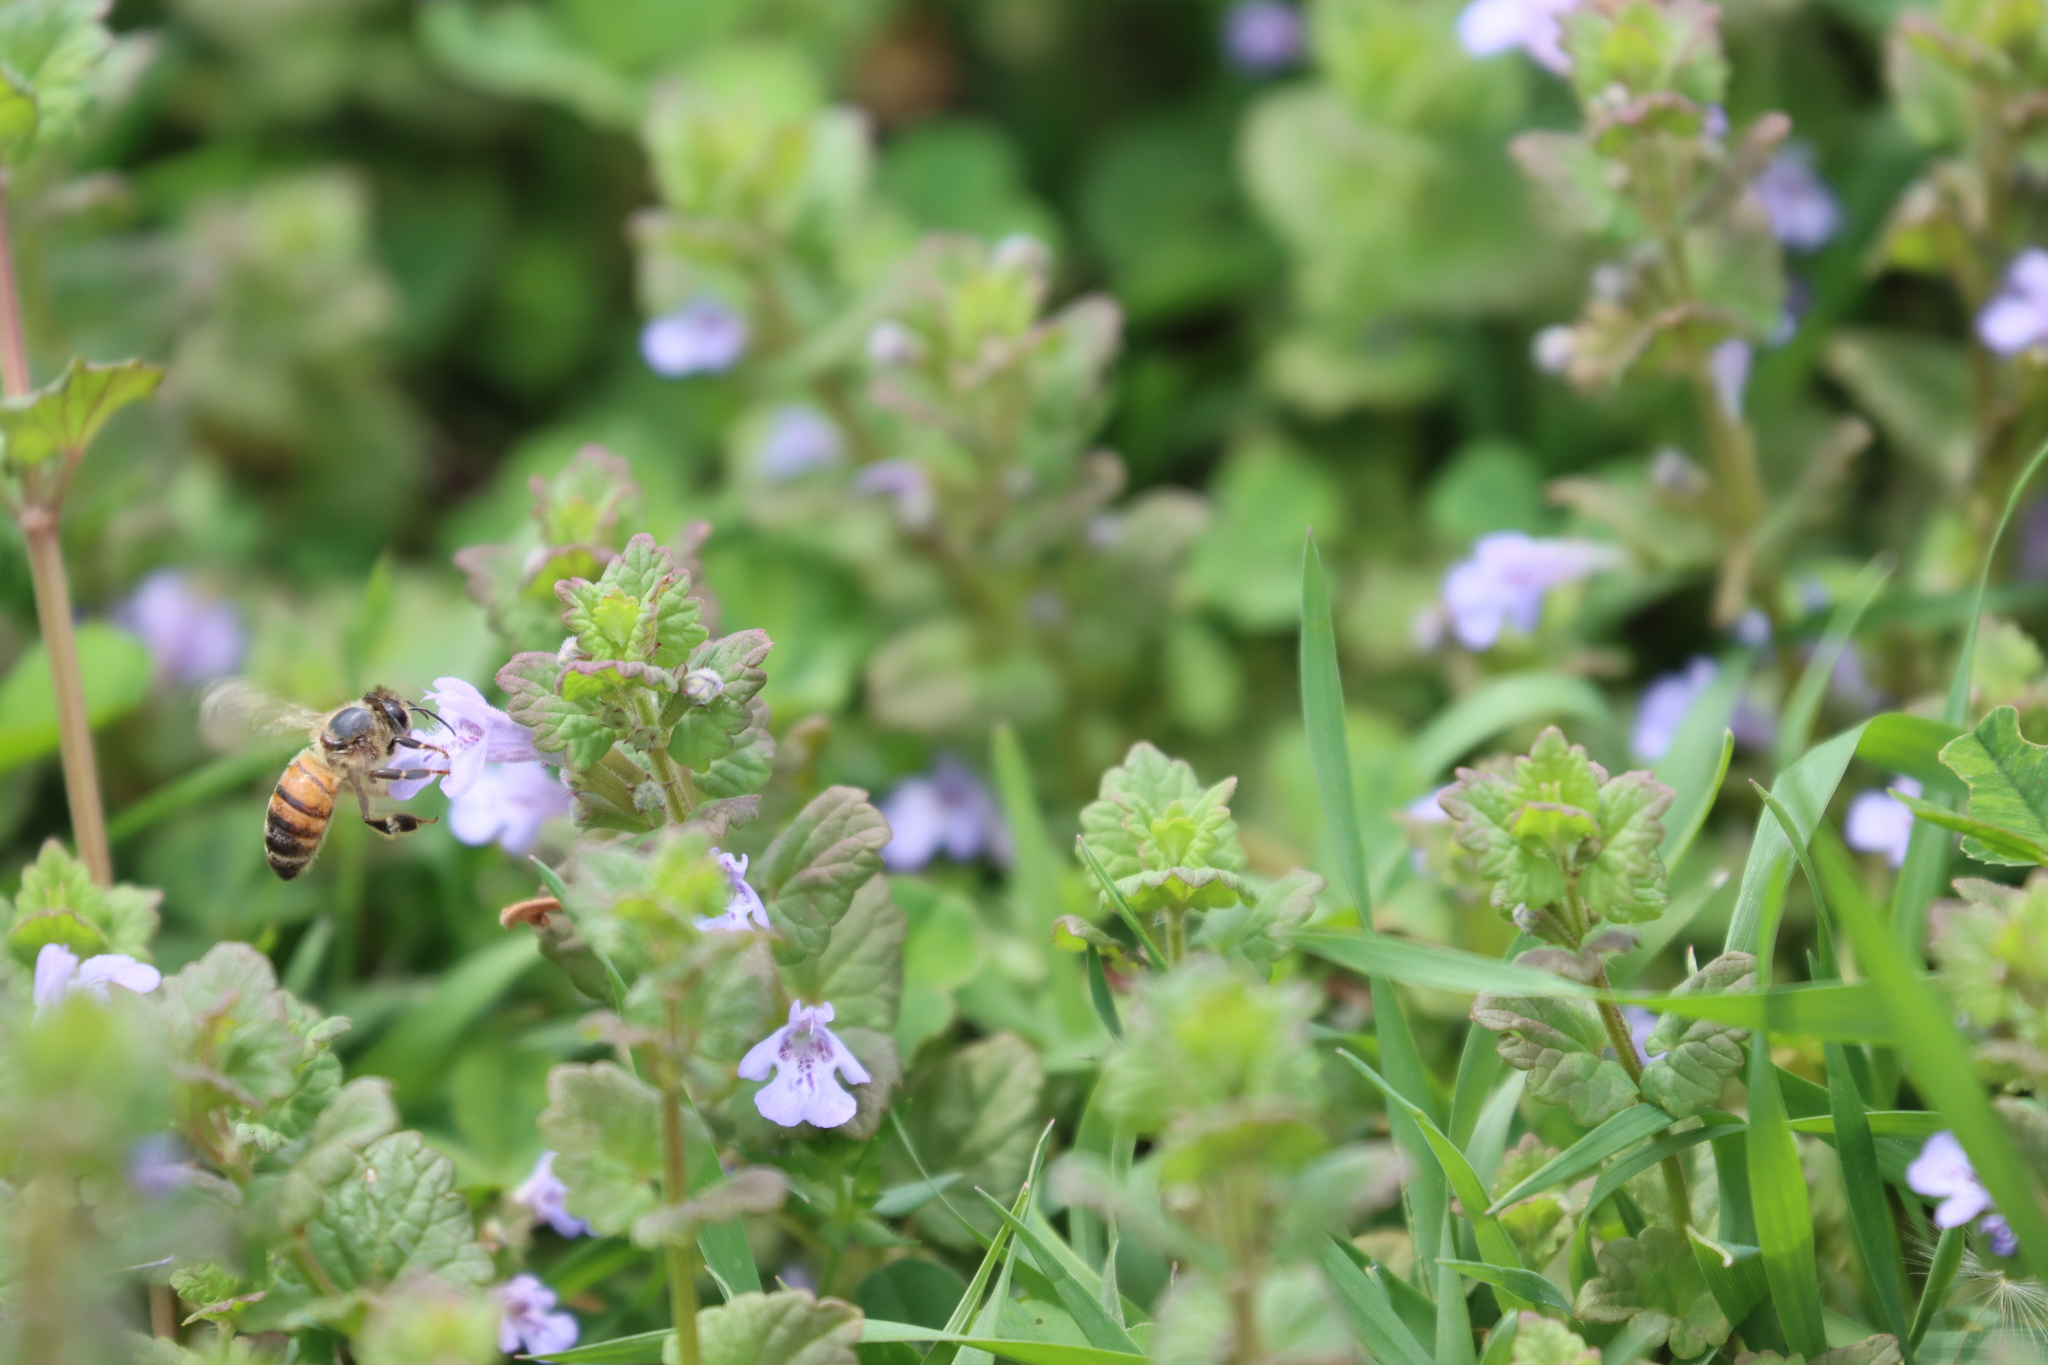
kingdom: Animalia
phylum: Arthropoda
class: Insecta
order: Hymenoptera
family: Apidae
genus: Apis
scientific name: Apis mellifera
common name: Honey bee
